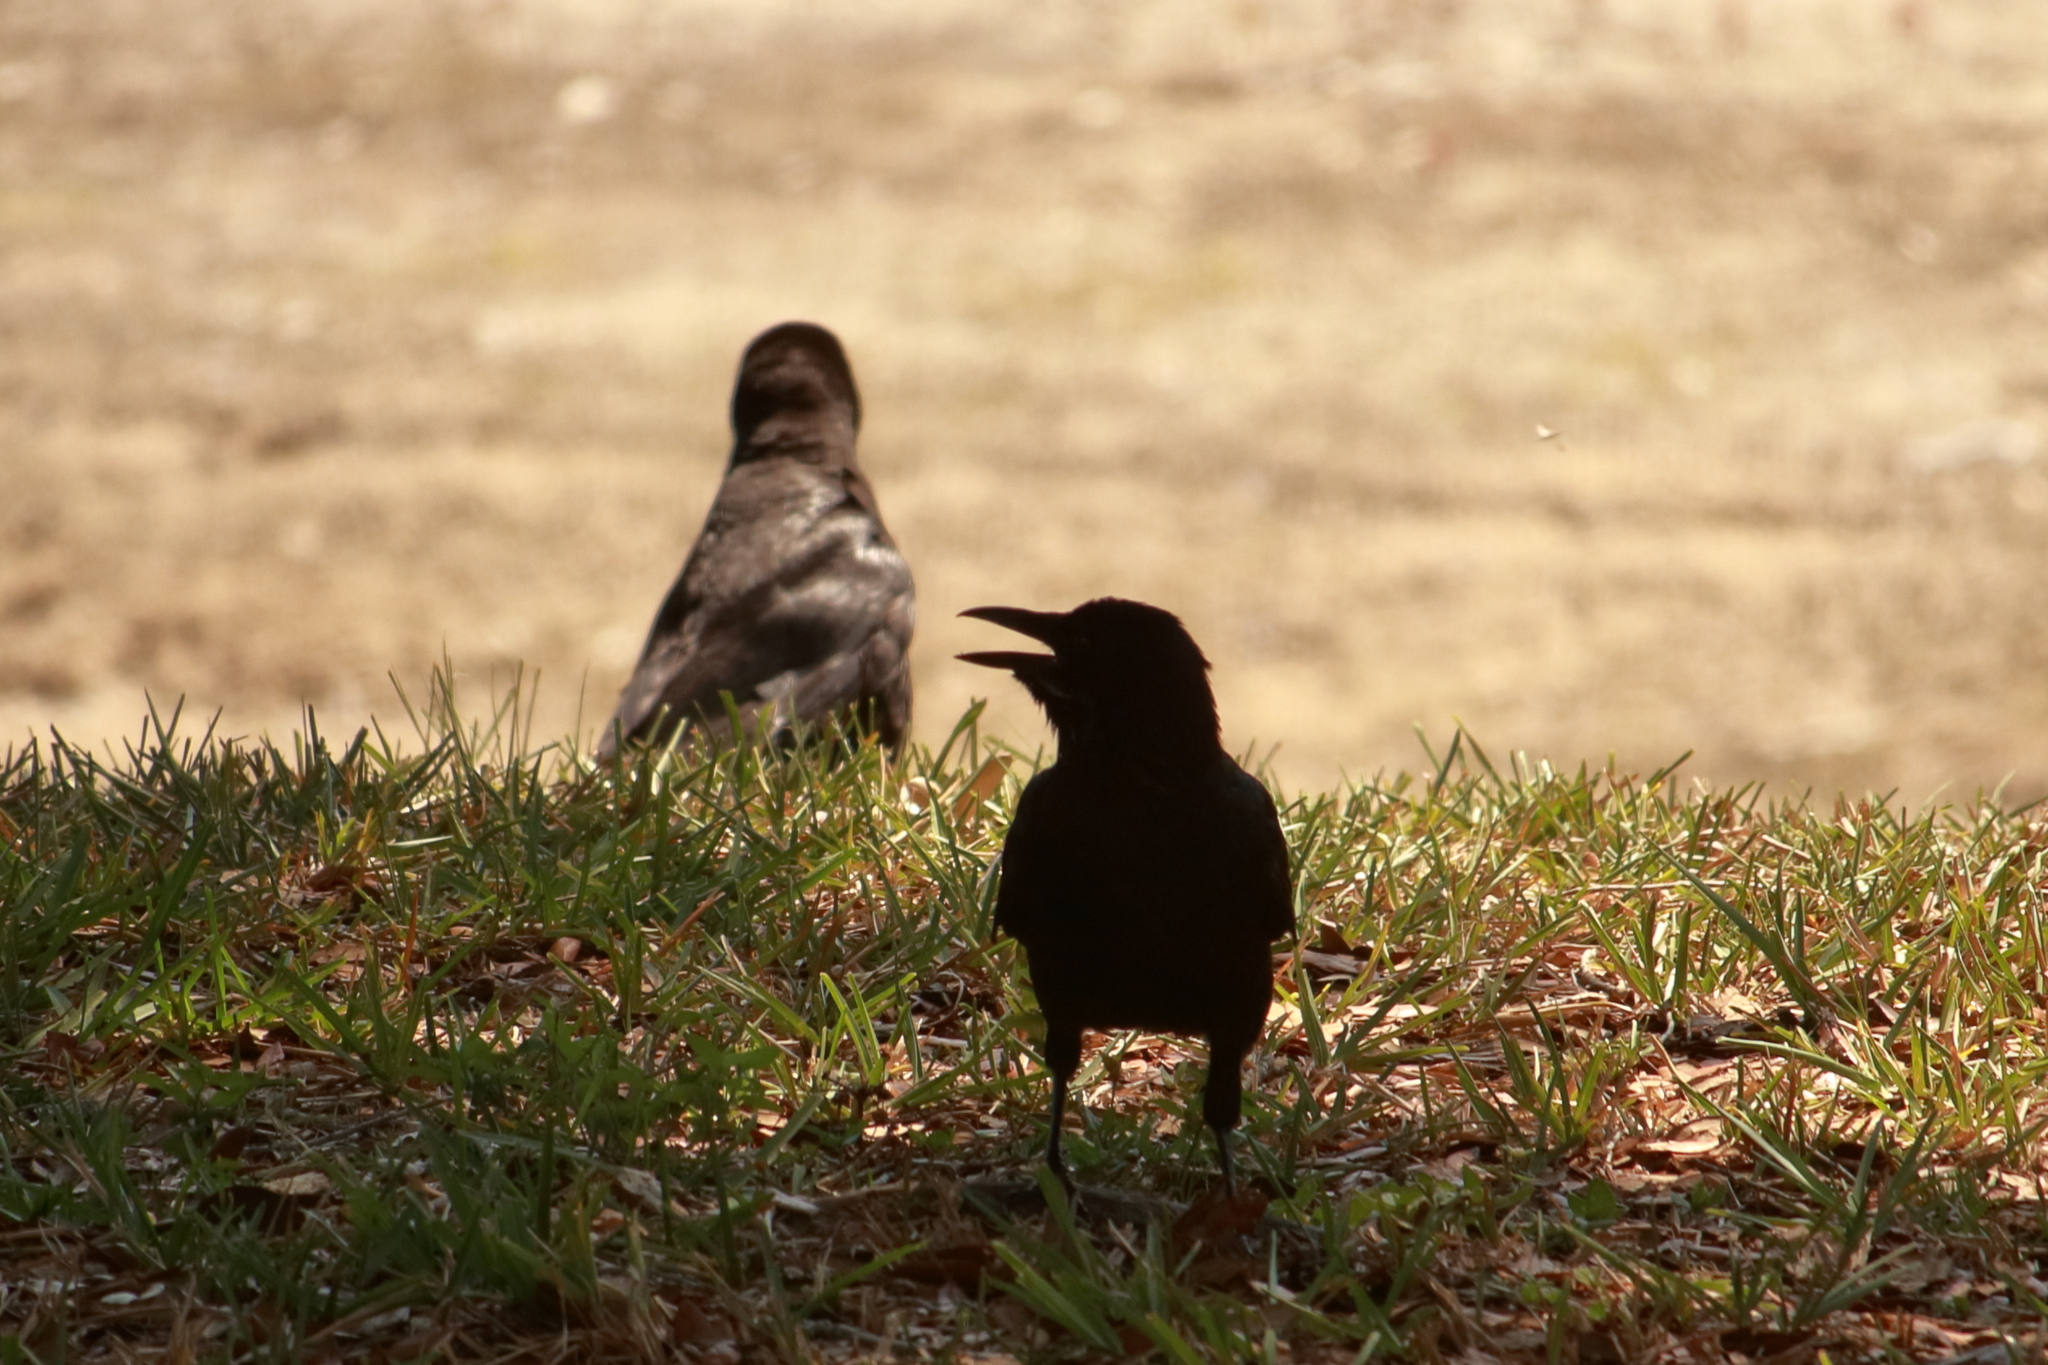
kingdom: Animalia
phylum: Chordata
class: Aves
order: Passeriformes
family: Corvidae
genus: Corvus
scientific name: Corvus
